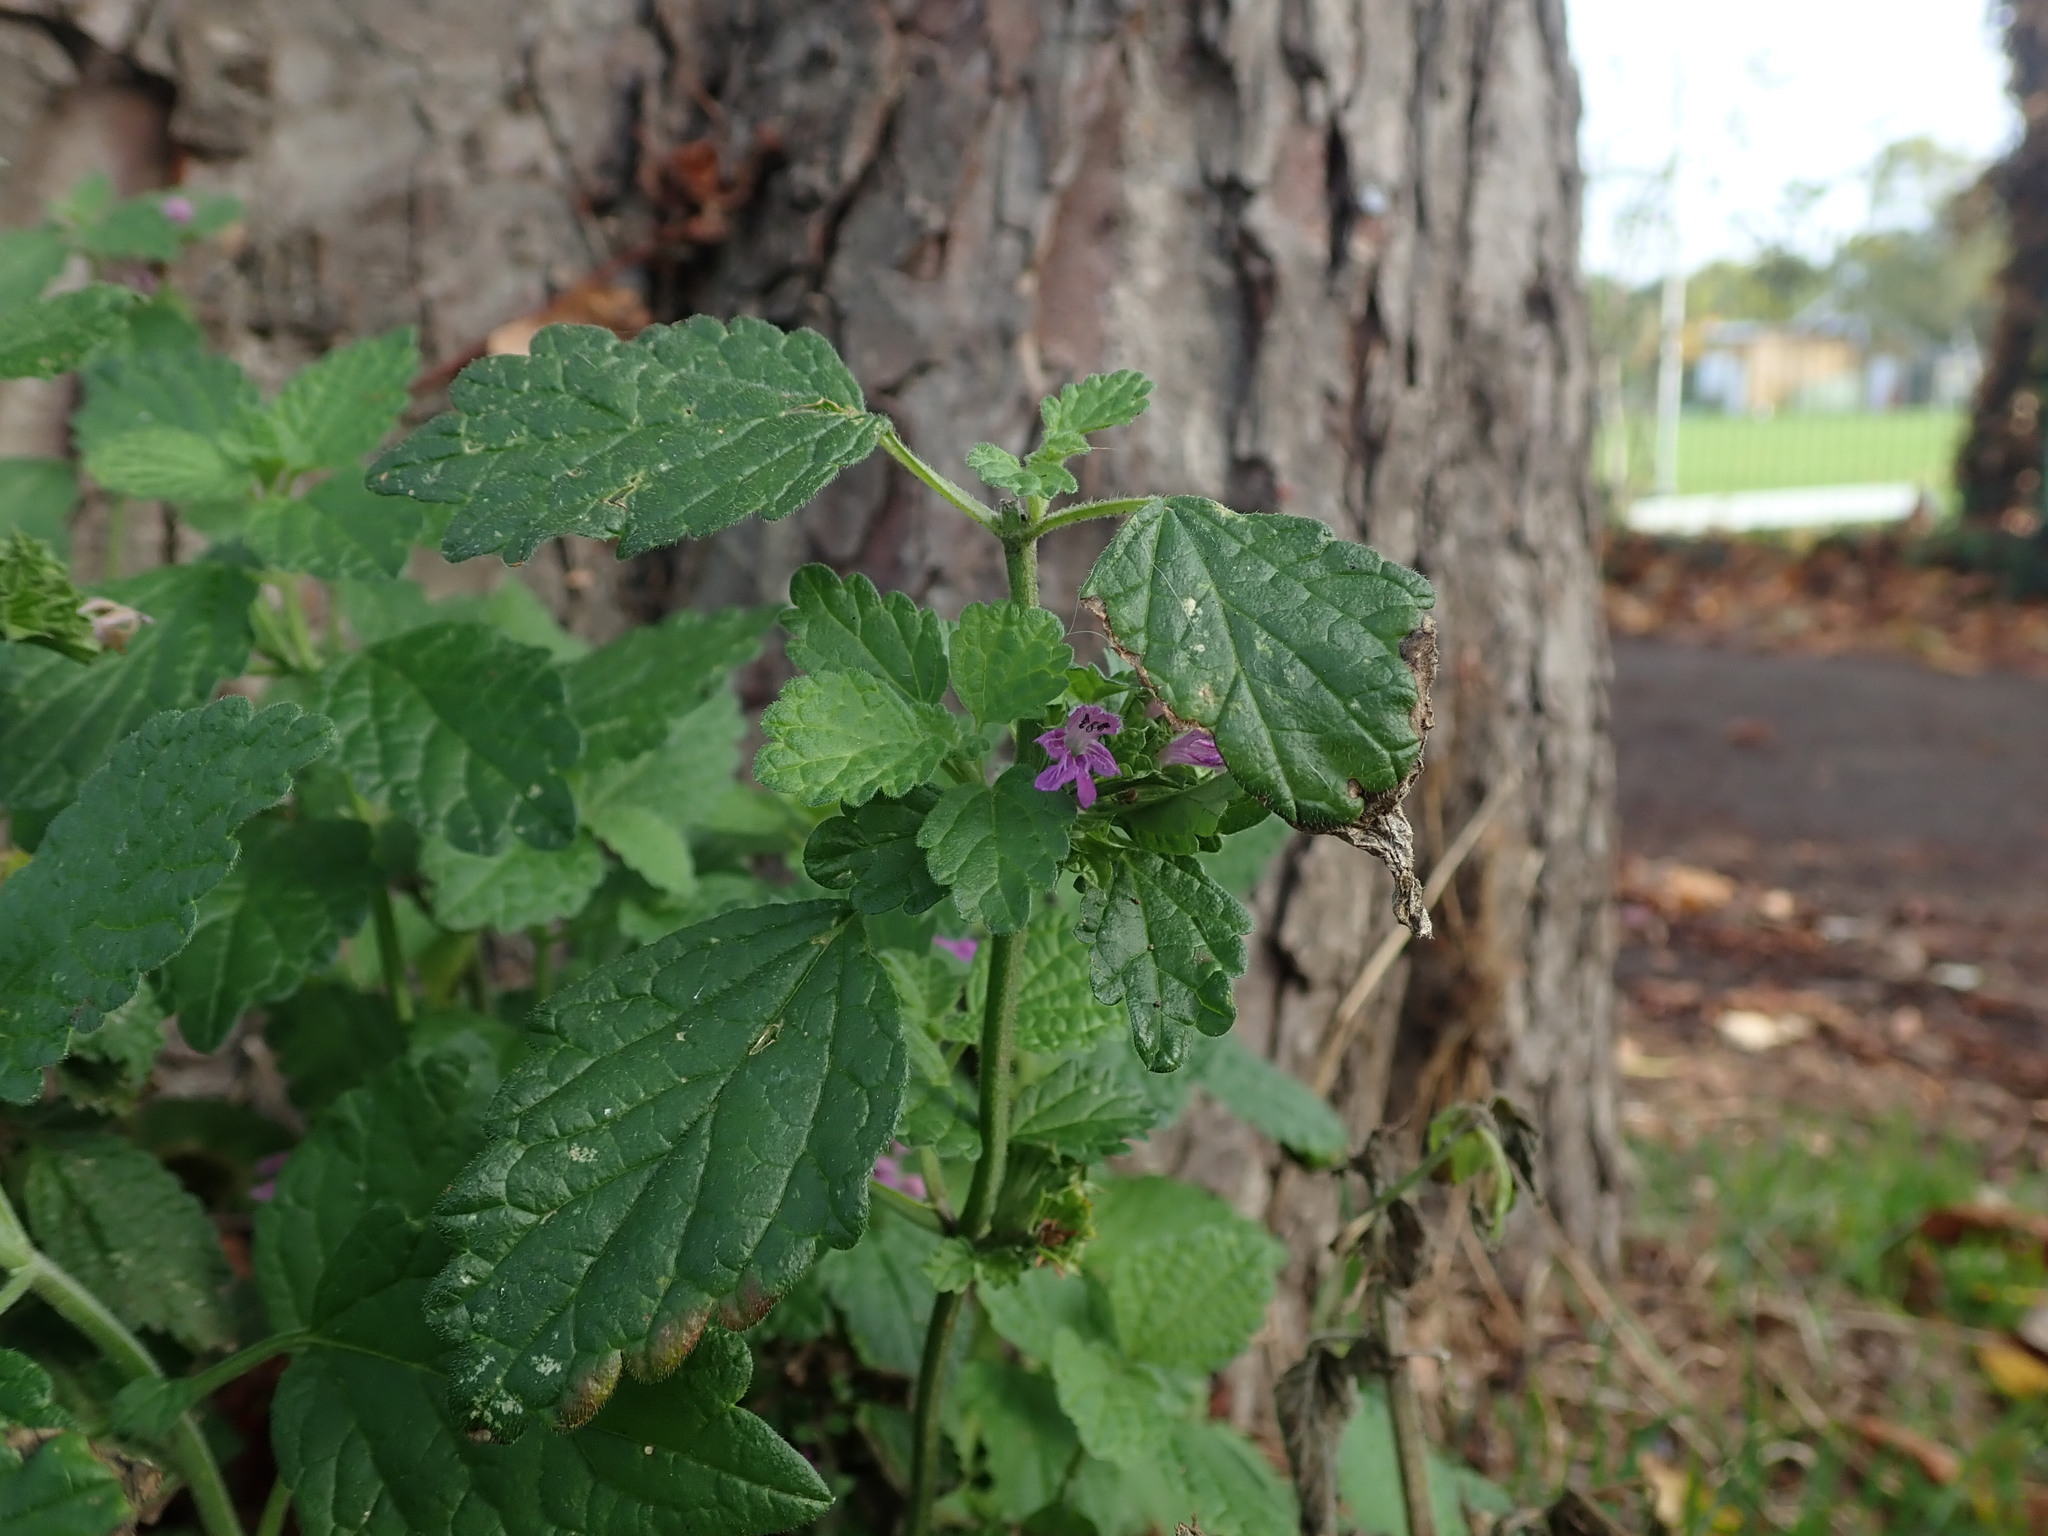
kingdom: Plantae
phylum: Tracheophyta
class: Magnoliopsida
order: Lamiales
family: Lamiaceae
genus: Ballota
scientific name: Ballota nigra
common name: Black horehound
